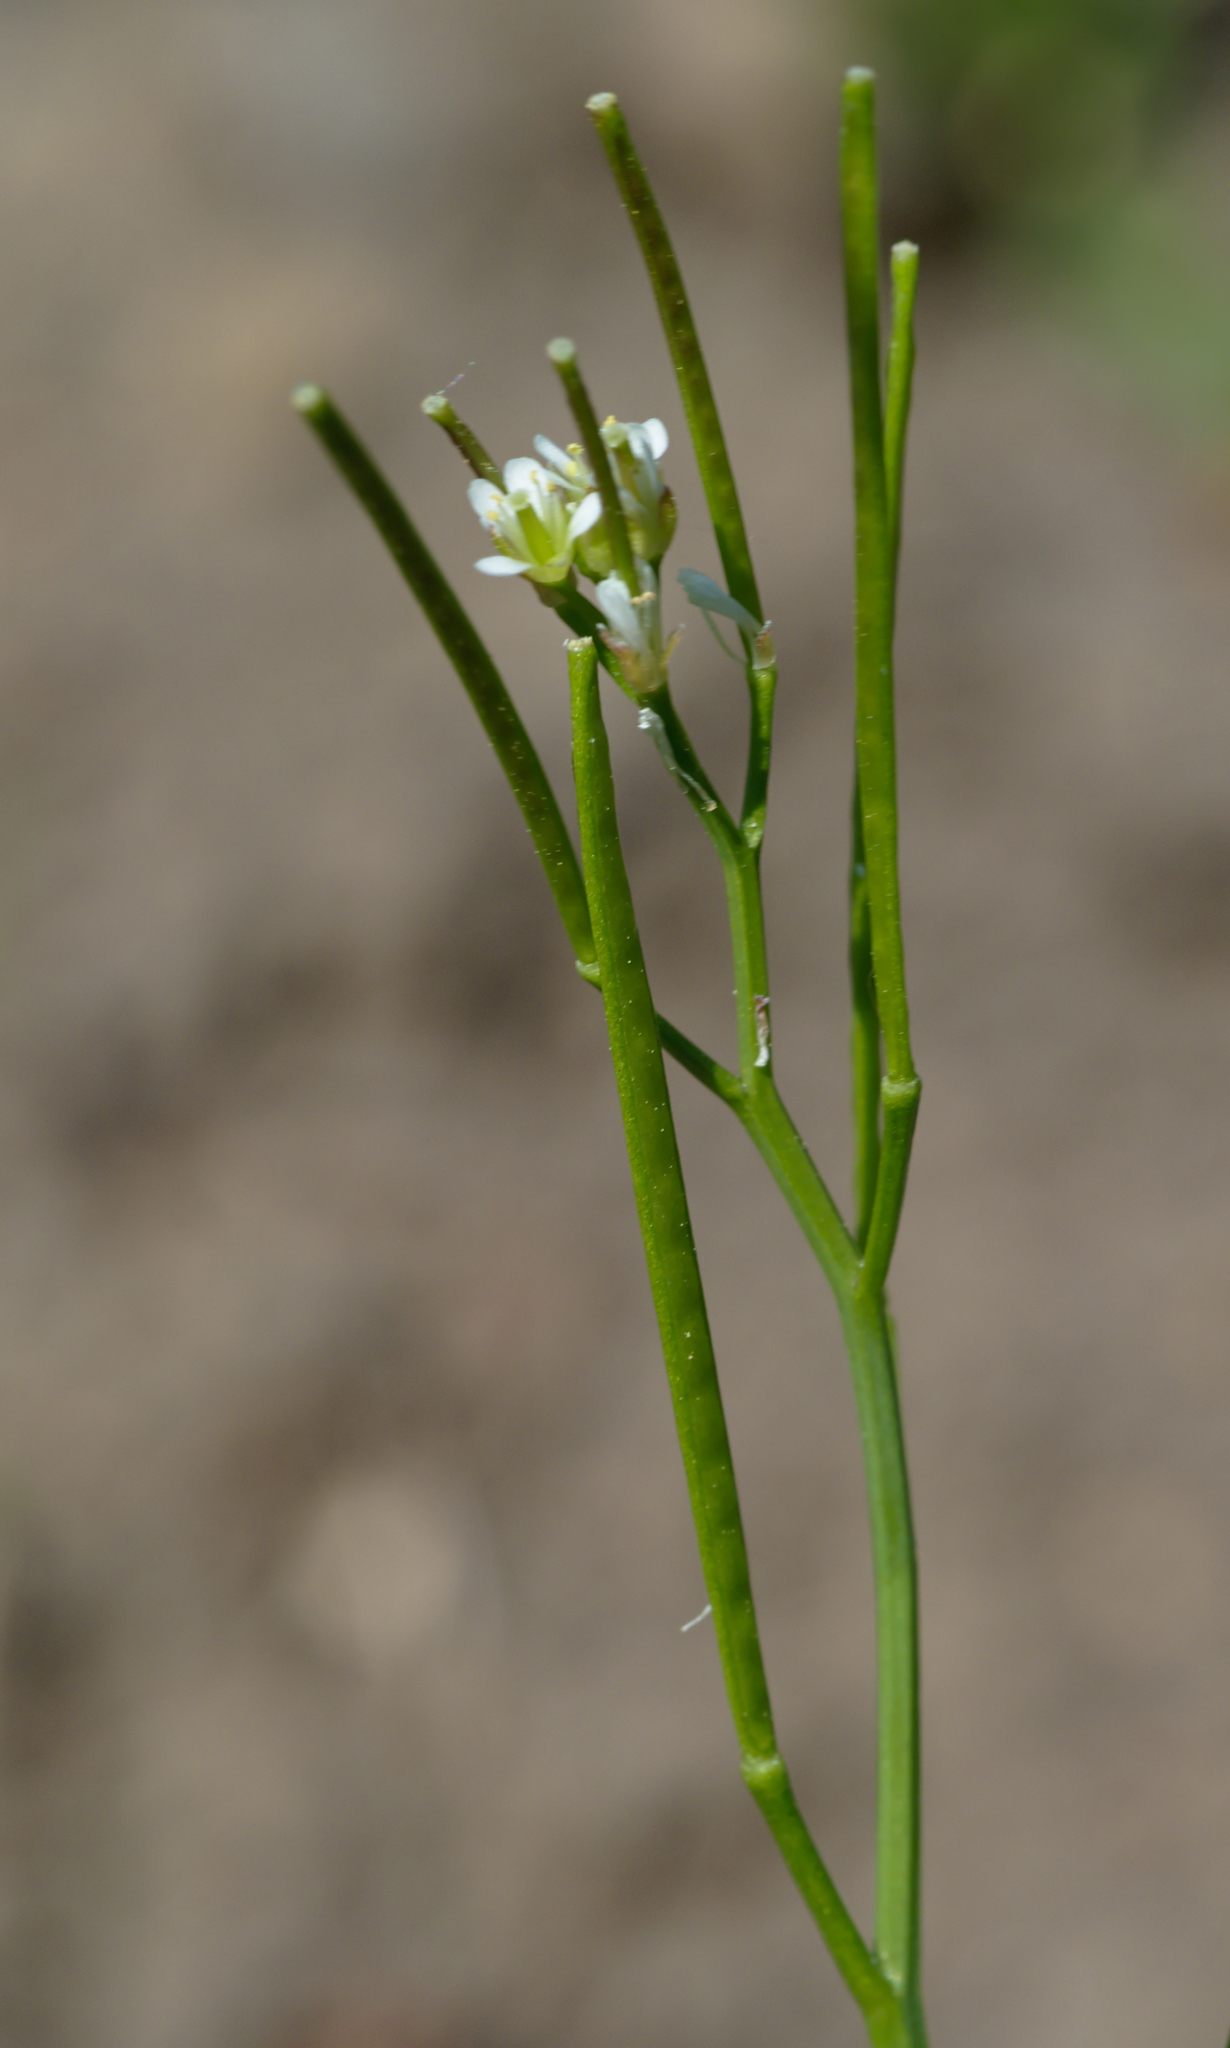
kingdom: Plantae
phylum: Tracheophyta
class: Magnoliopsida
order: Brassicales
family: Brassicaceae
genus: Cardamine
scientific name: Cardamine hirsuta
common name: Hairy bittercress
